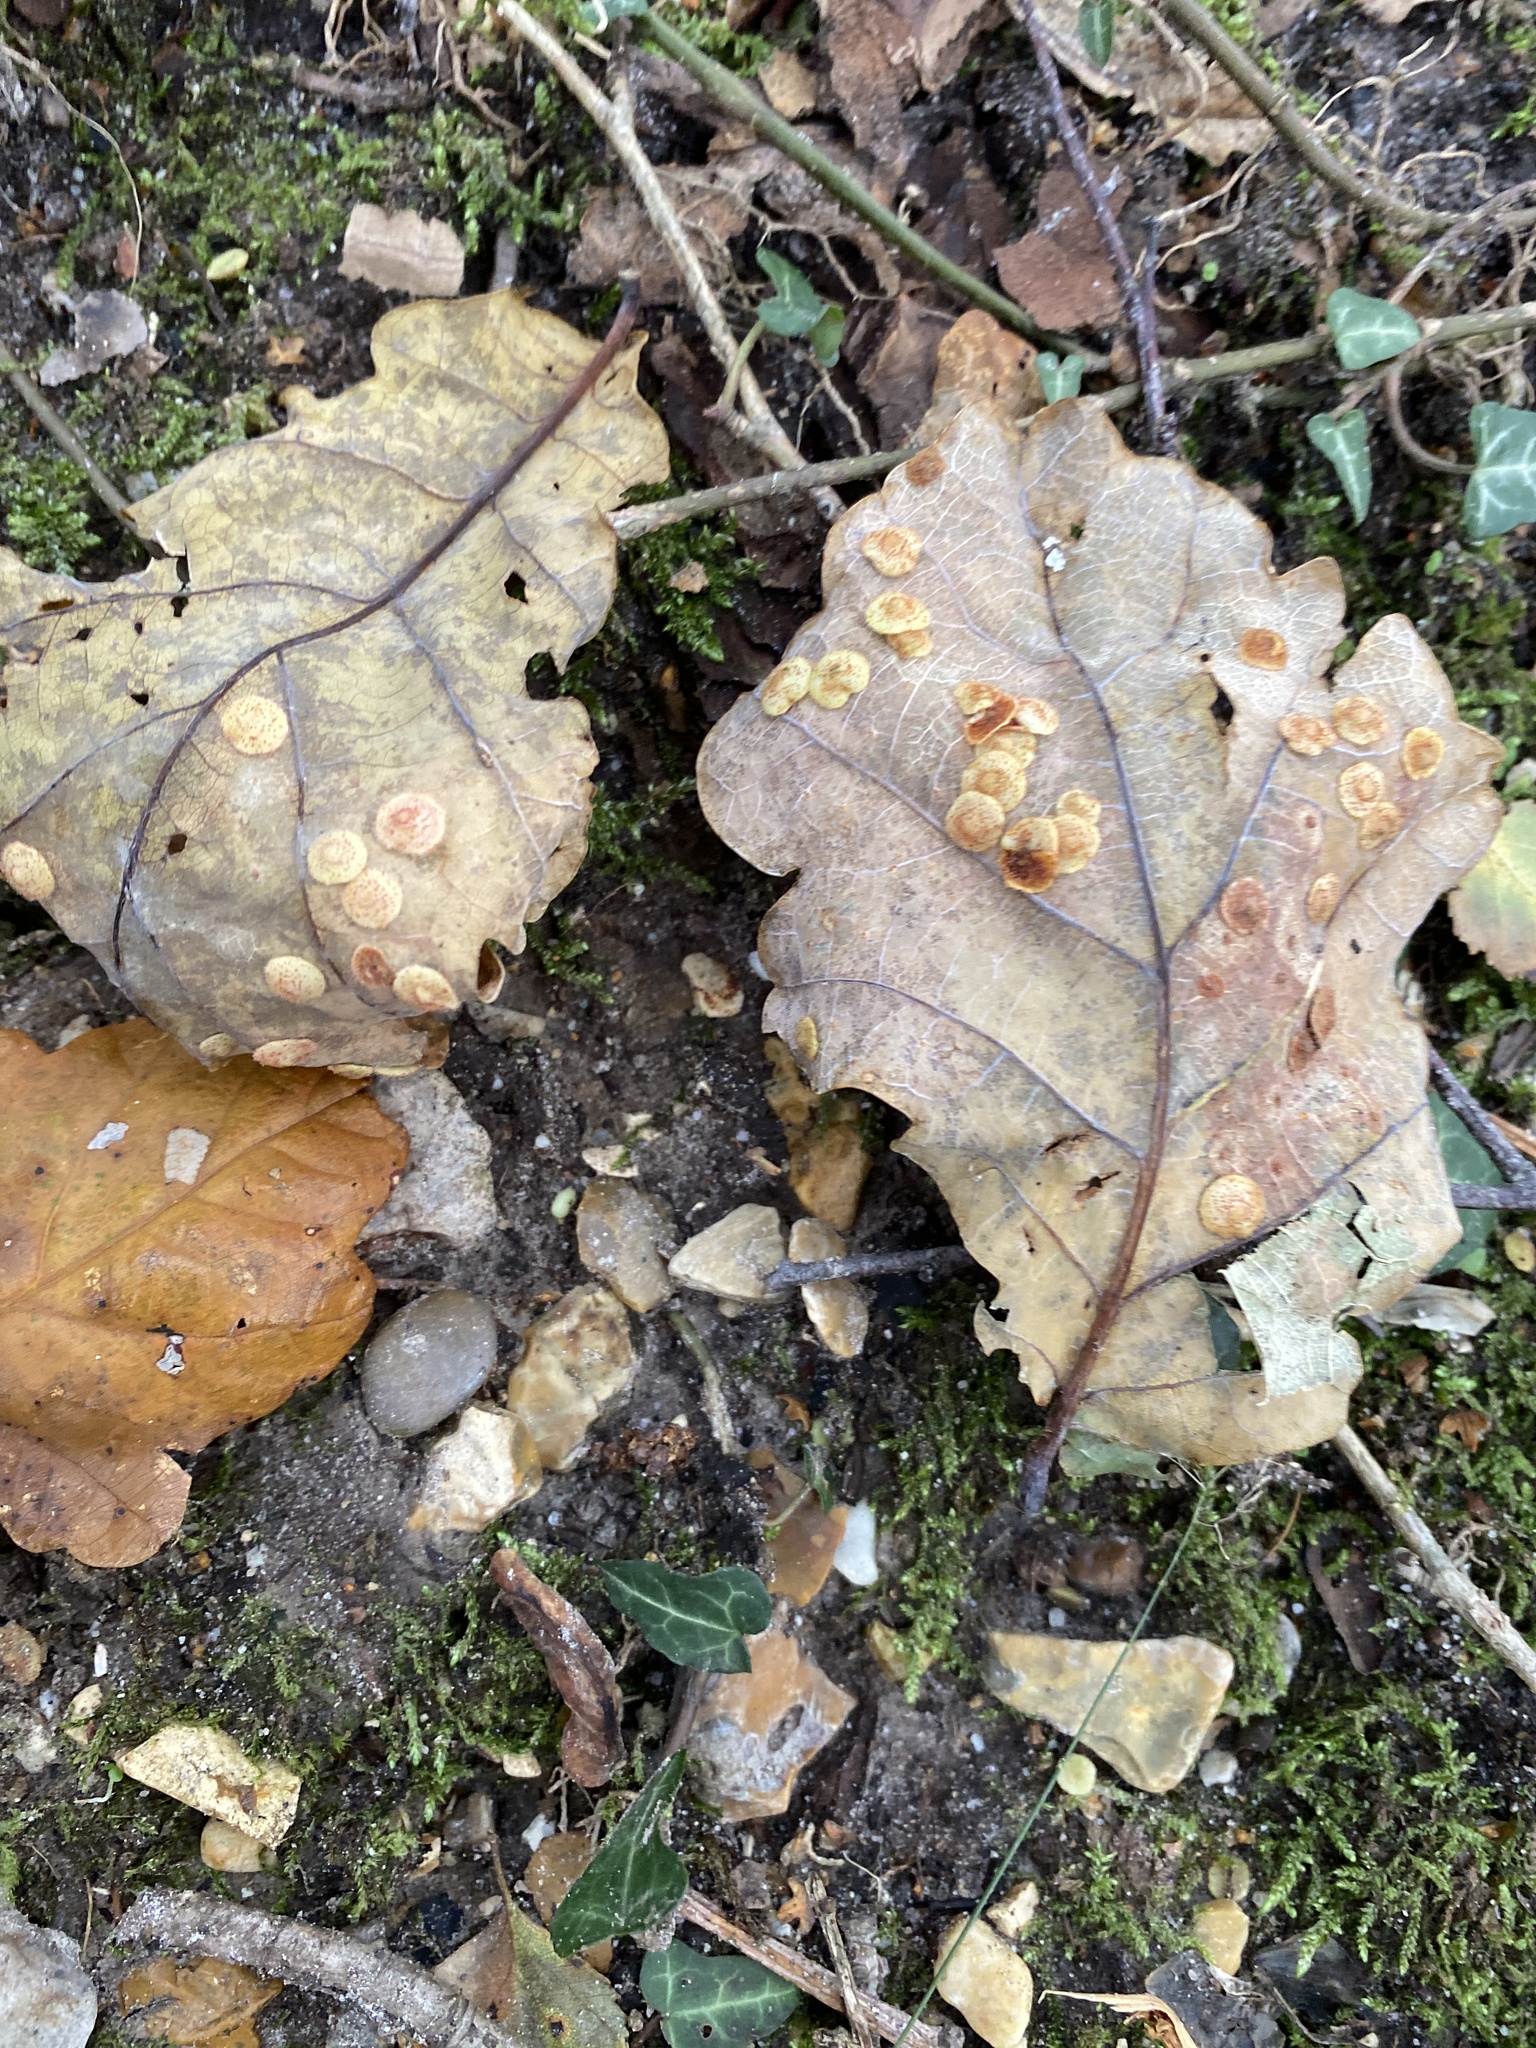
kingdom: Animalia
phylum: Arthropoda
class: Insecta
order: Hymenoptera
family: Cynipidae
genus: Neuroterus
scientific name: Neuroterus quercusbaccarum
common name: Common spangle gall
